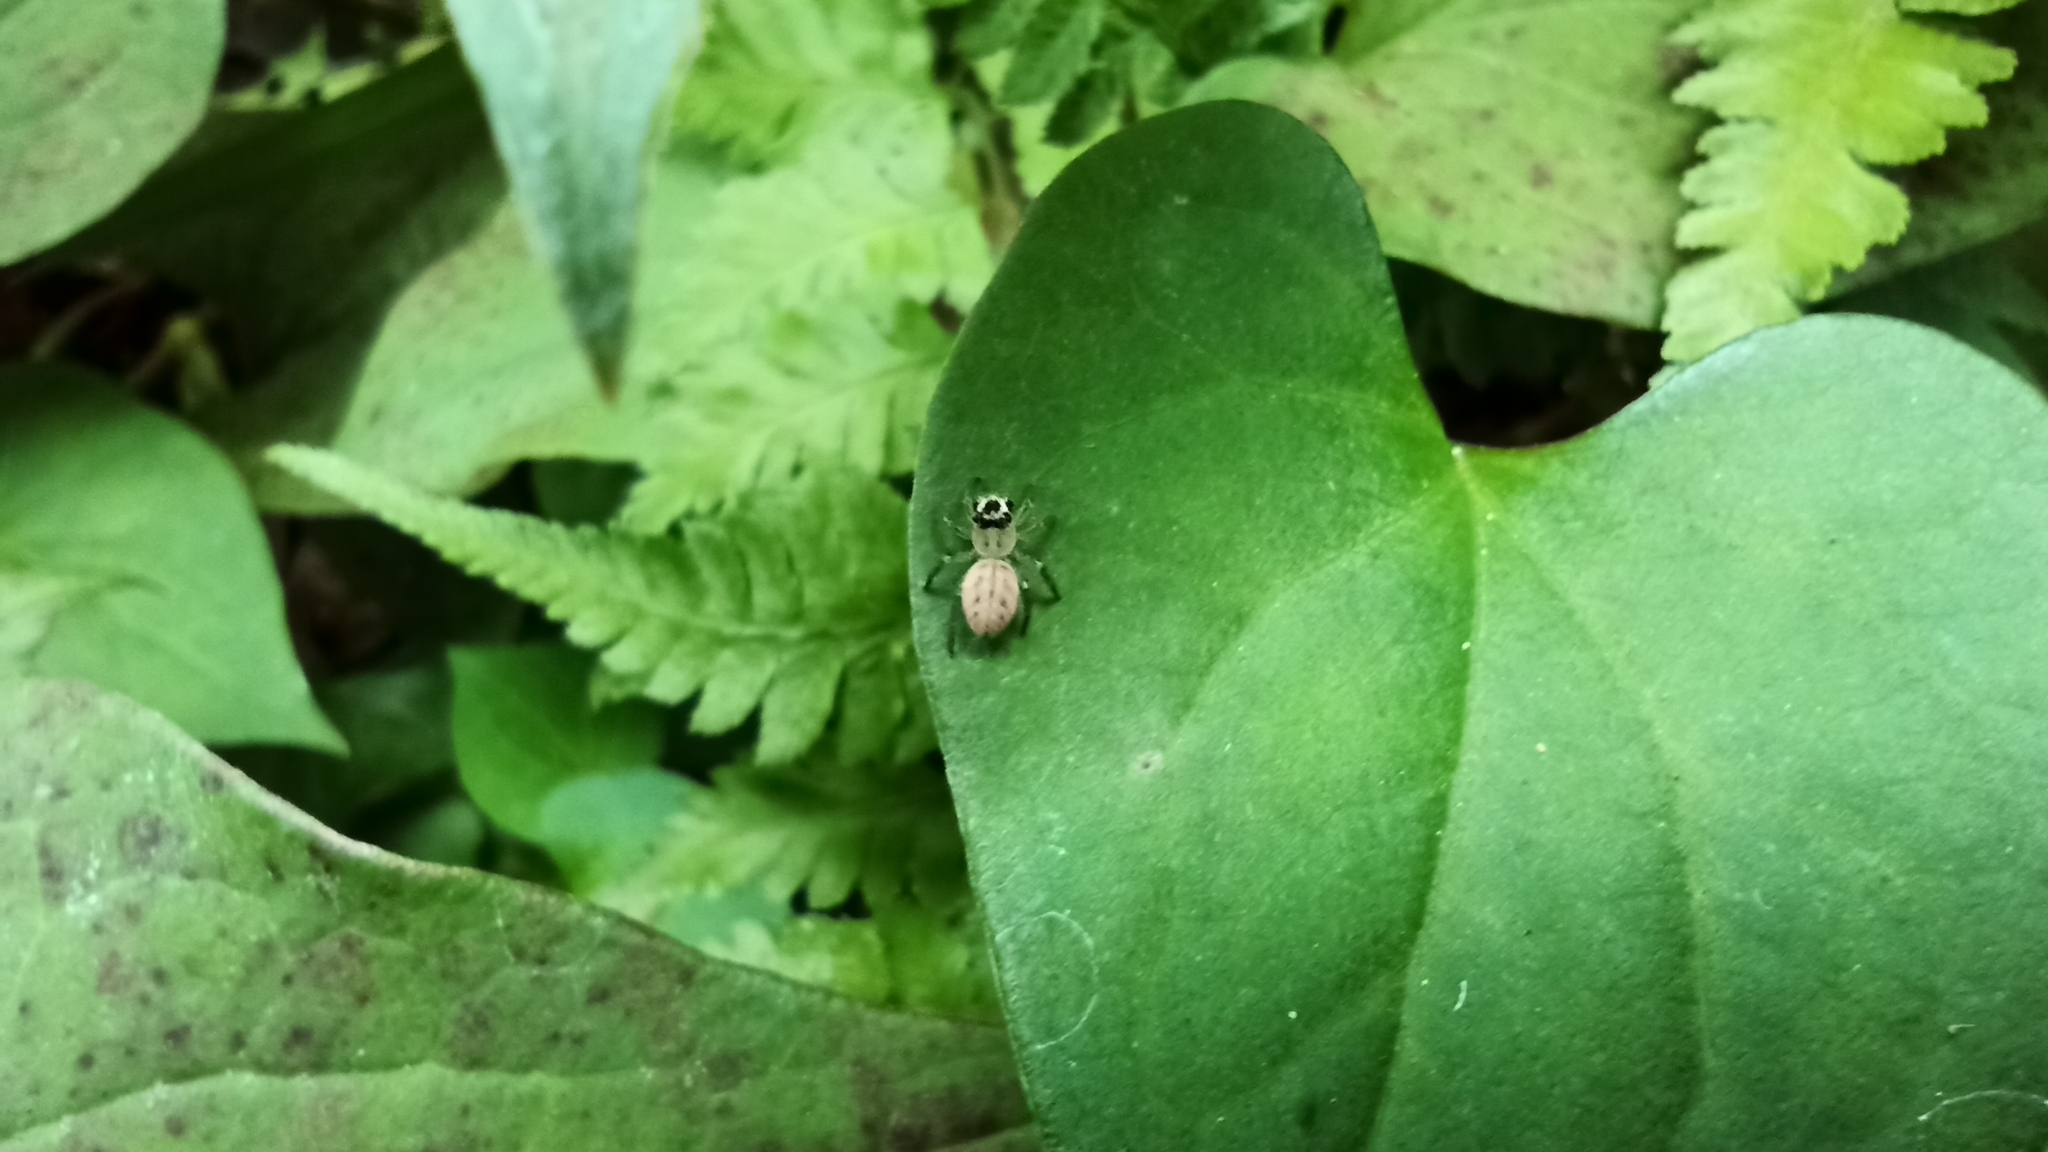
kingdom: Animalia
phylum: Arthropoda
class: Arachnida
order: Araneae
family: Salticidae
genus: Plexippoides
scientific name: Plexippoides doenitzi
